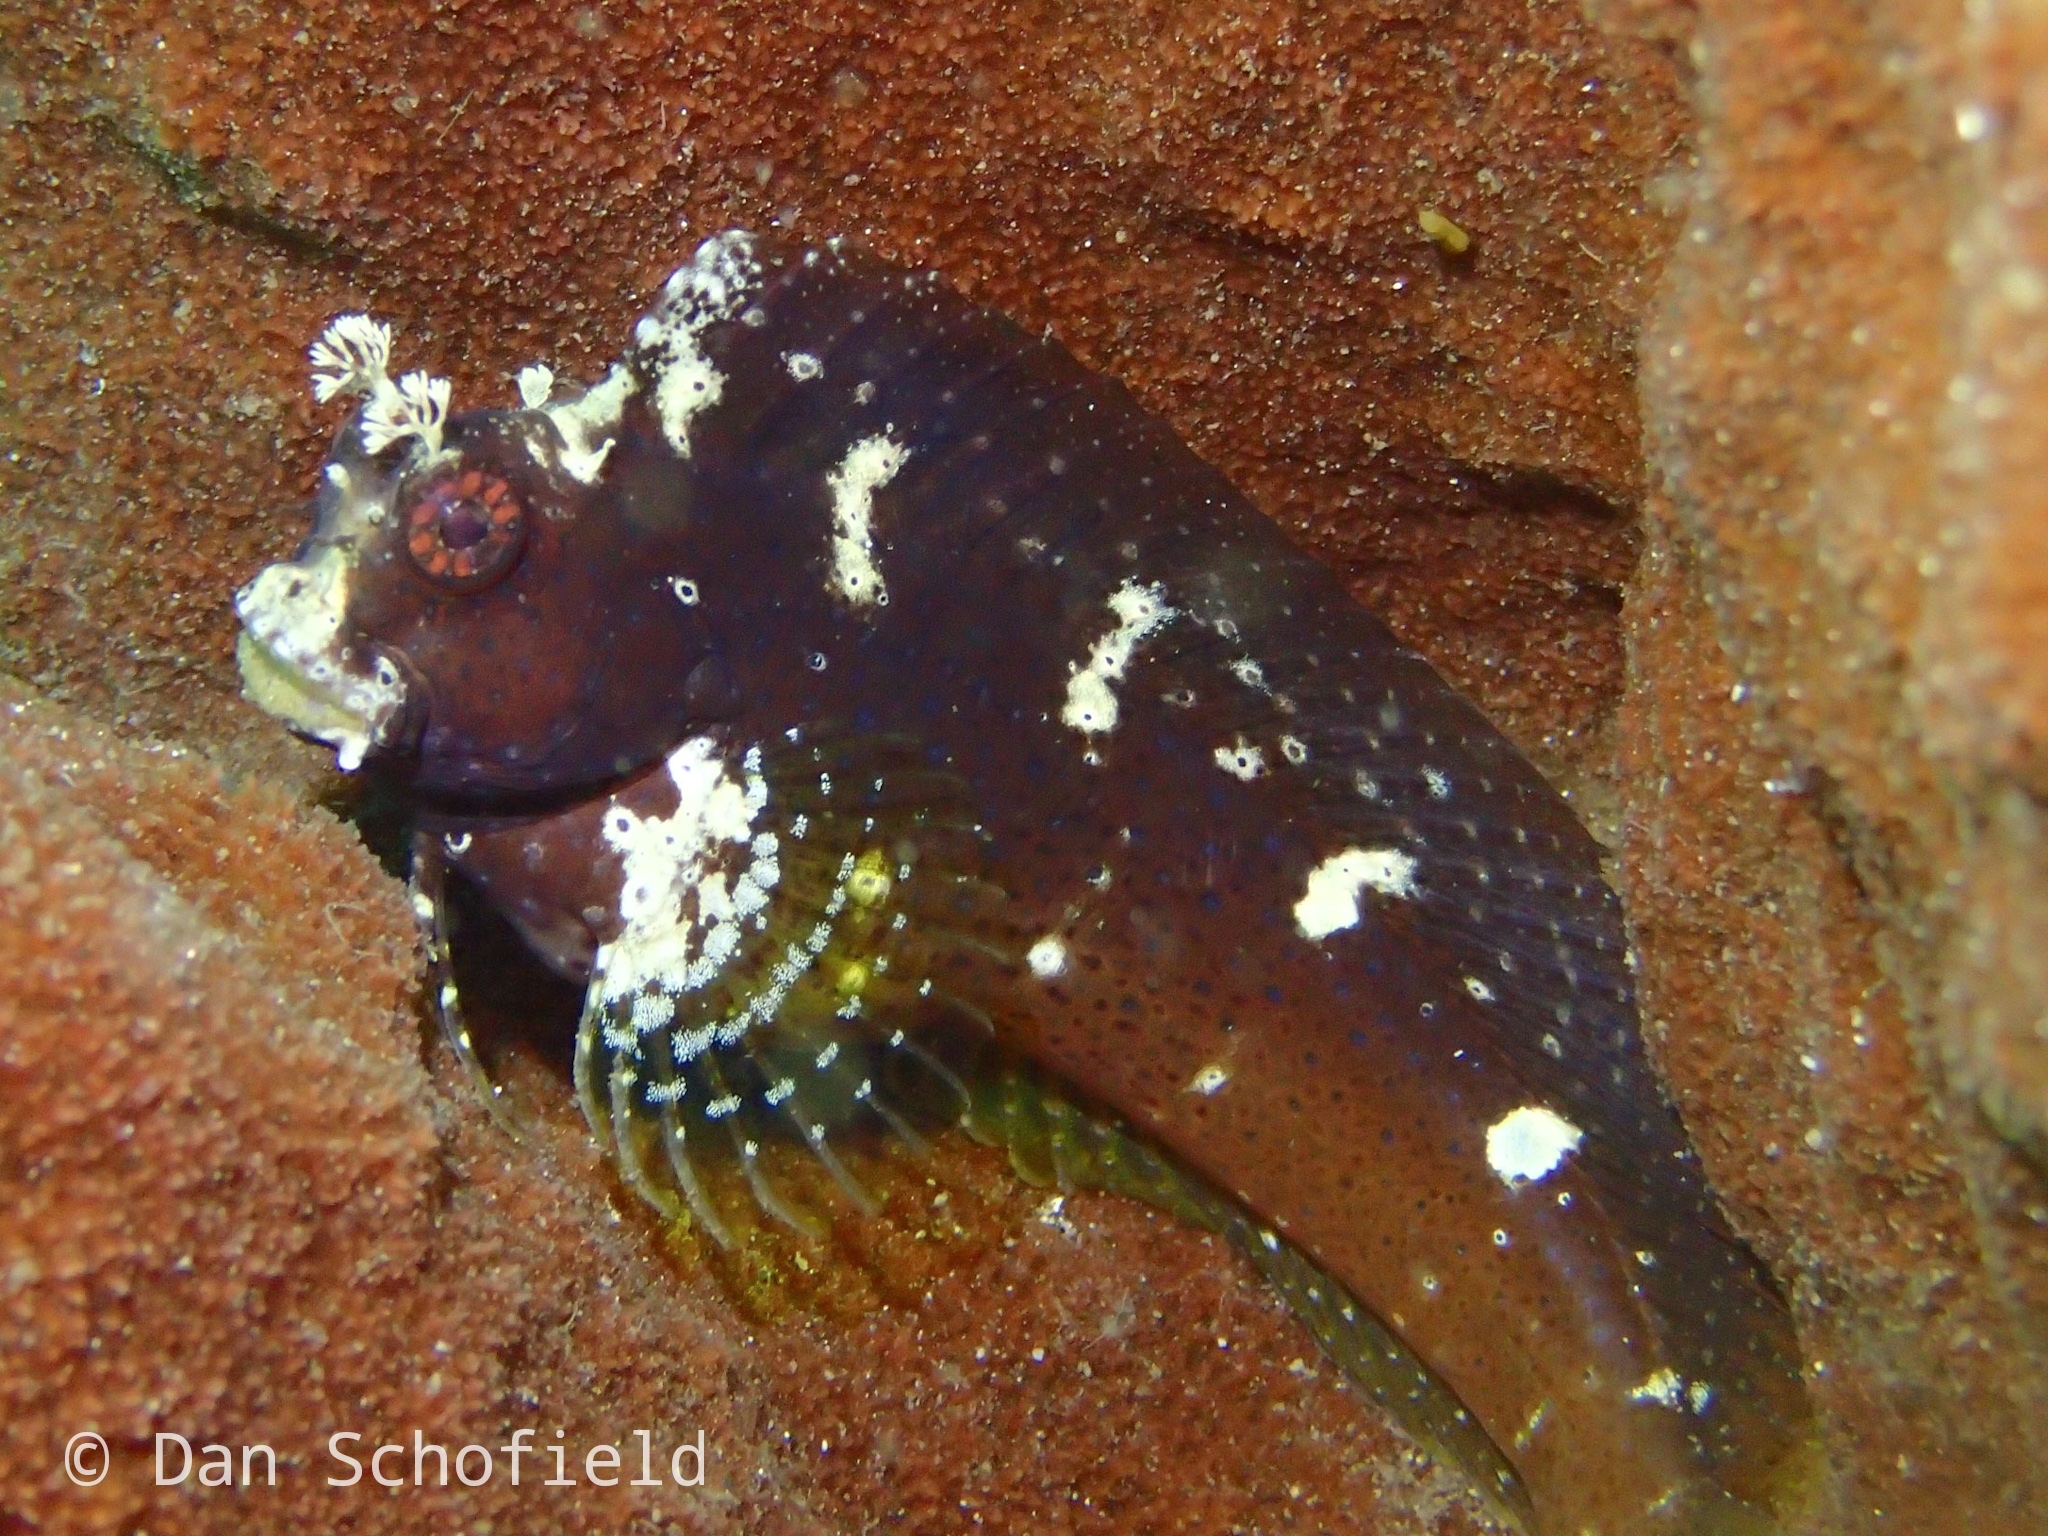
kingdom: Animalia
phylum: Chordata
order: Perciformes
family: Blenniidae
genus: Salarias
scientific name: Salarias ramosus
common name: Snowflake blenny
